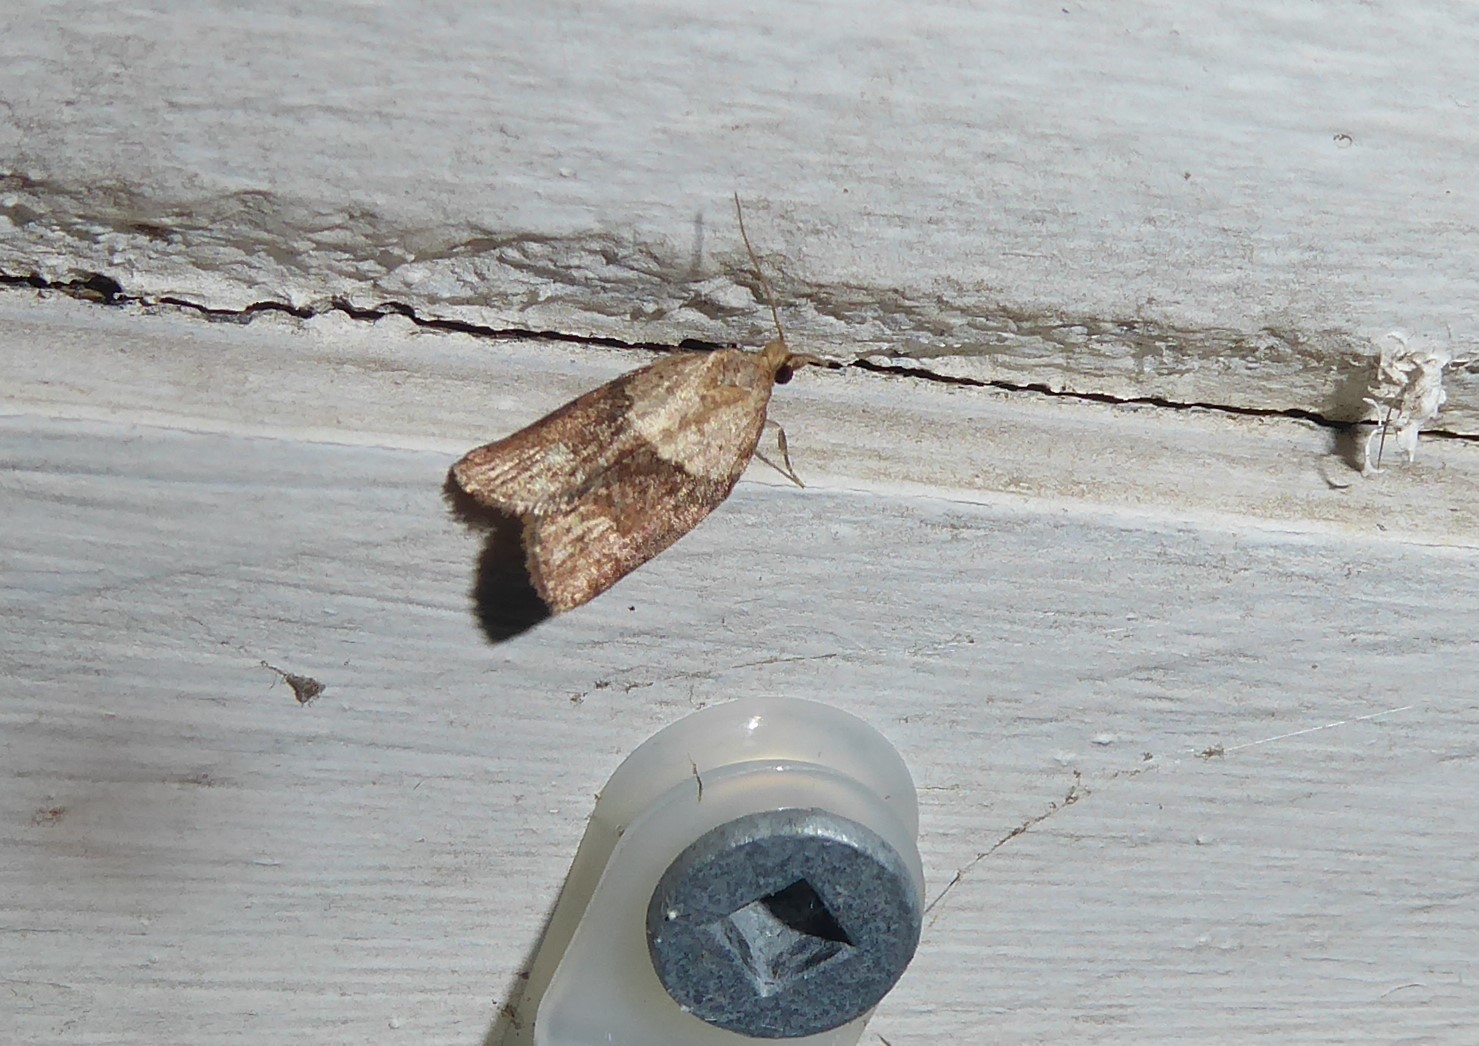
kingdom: Animalia
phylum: Arthropoda
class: Insecta
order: Lepidoptera
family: Tortricidae
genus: Epiphyas
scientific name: Epiphyas postvittana
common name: Light brown apple moth
